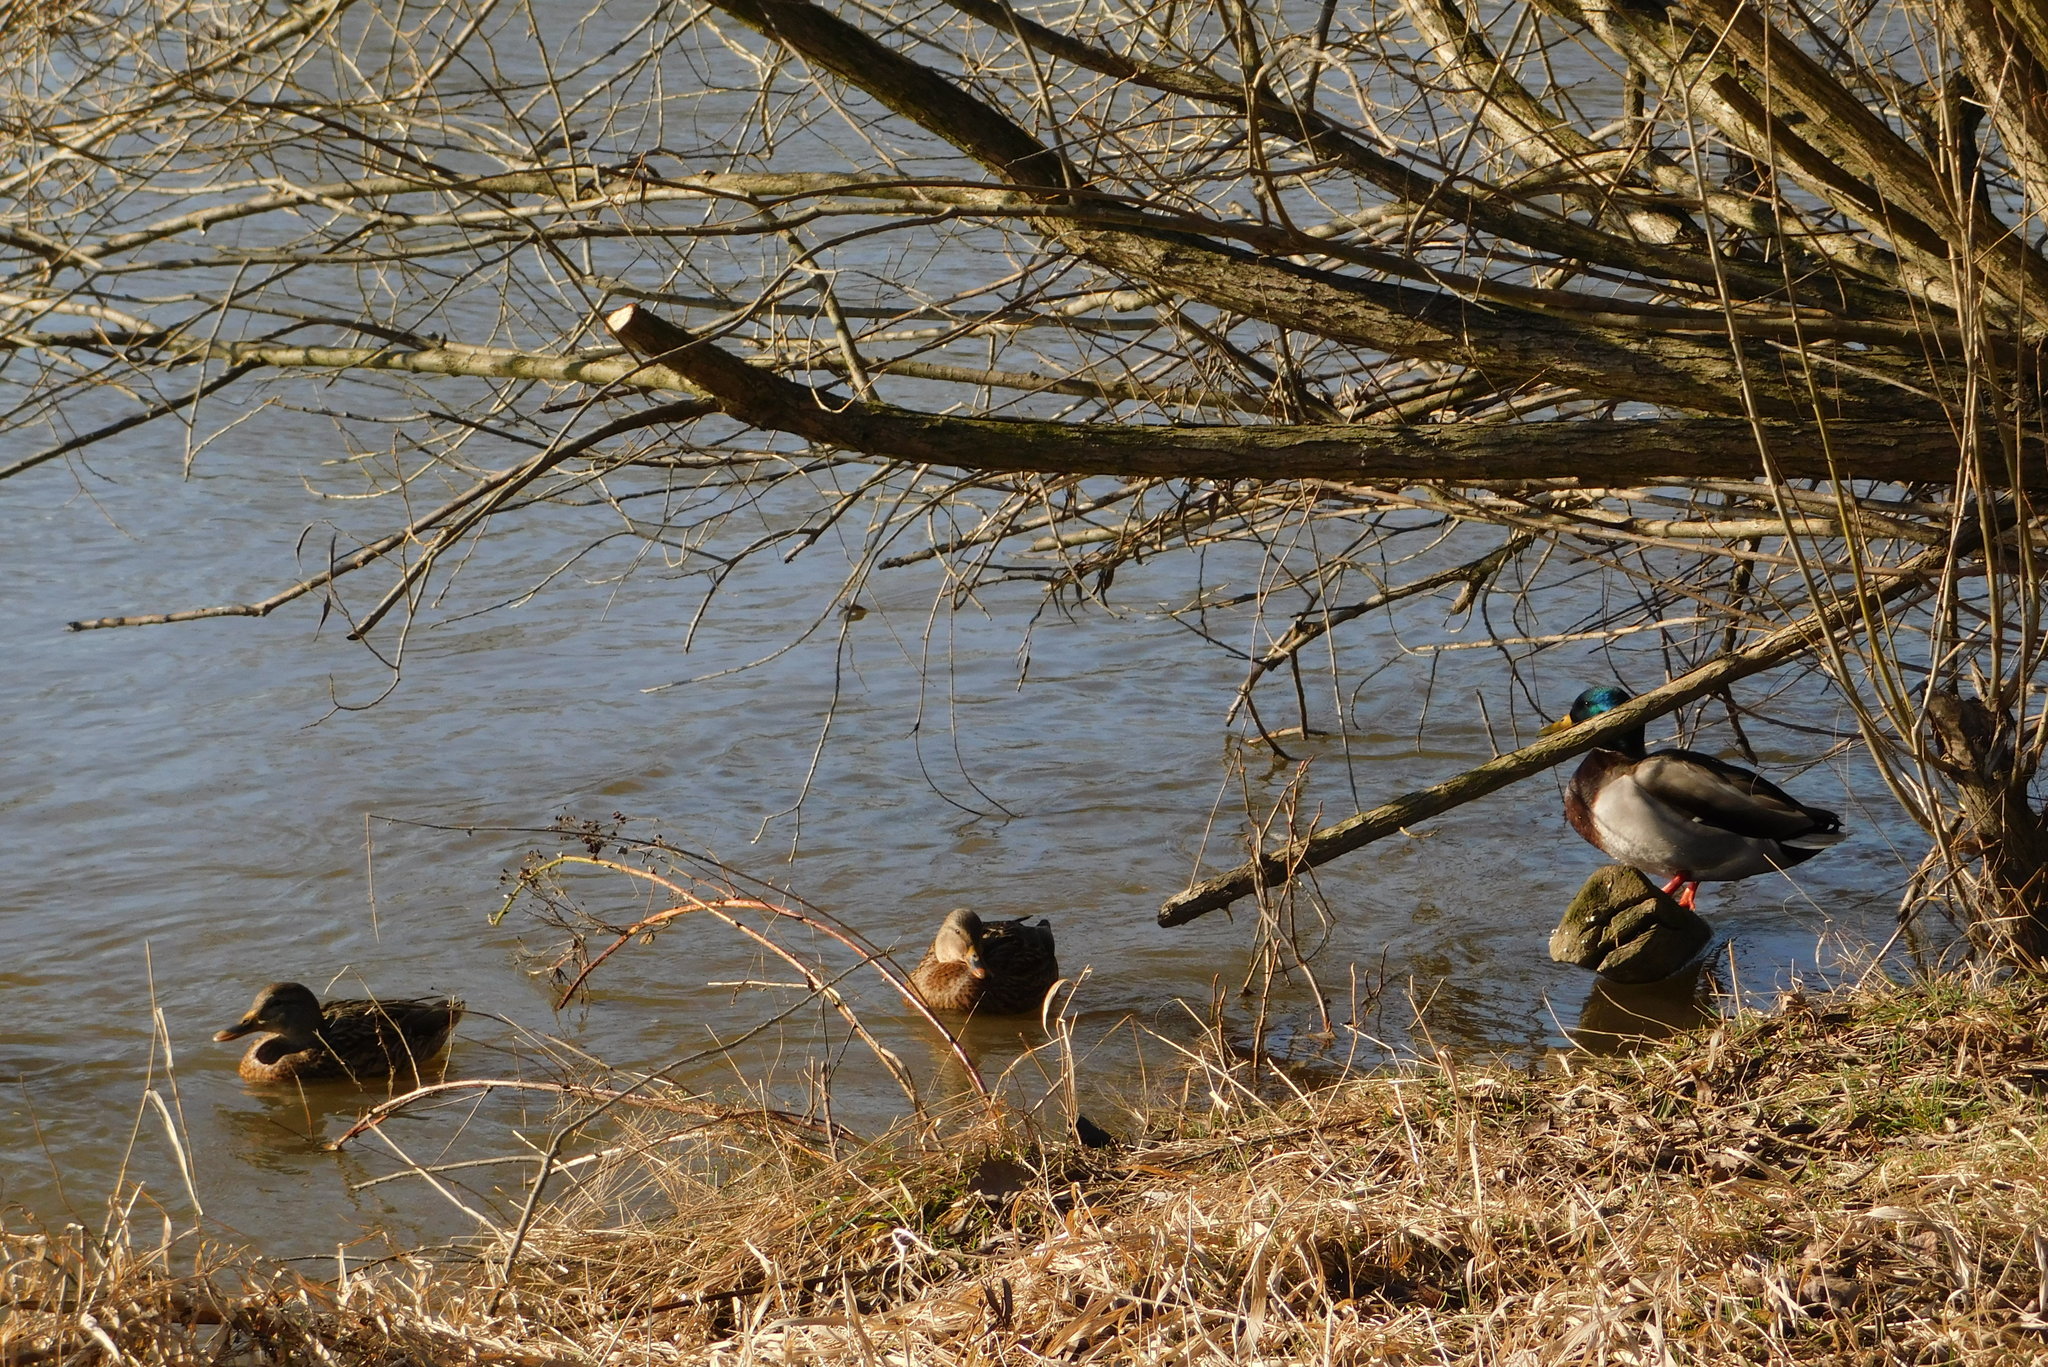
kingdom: Animalia
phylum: Chordata
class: Aves
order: Anseriformes
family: Anatidae
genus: Anas
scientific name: Anas platyrhynchos
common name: Mallard
